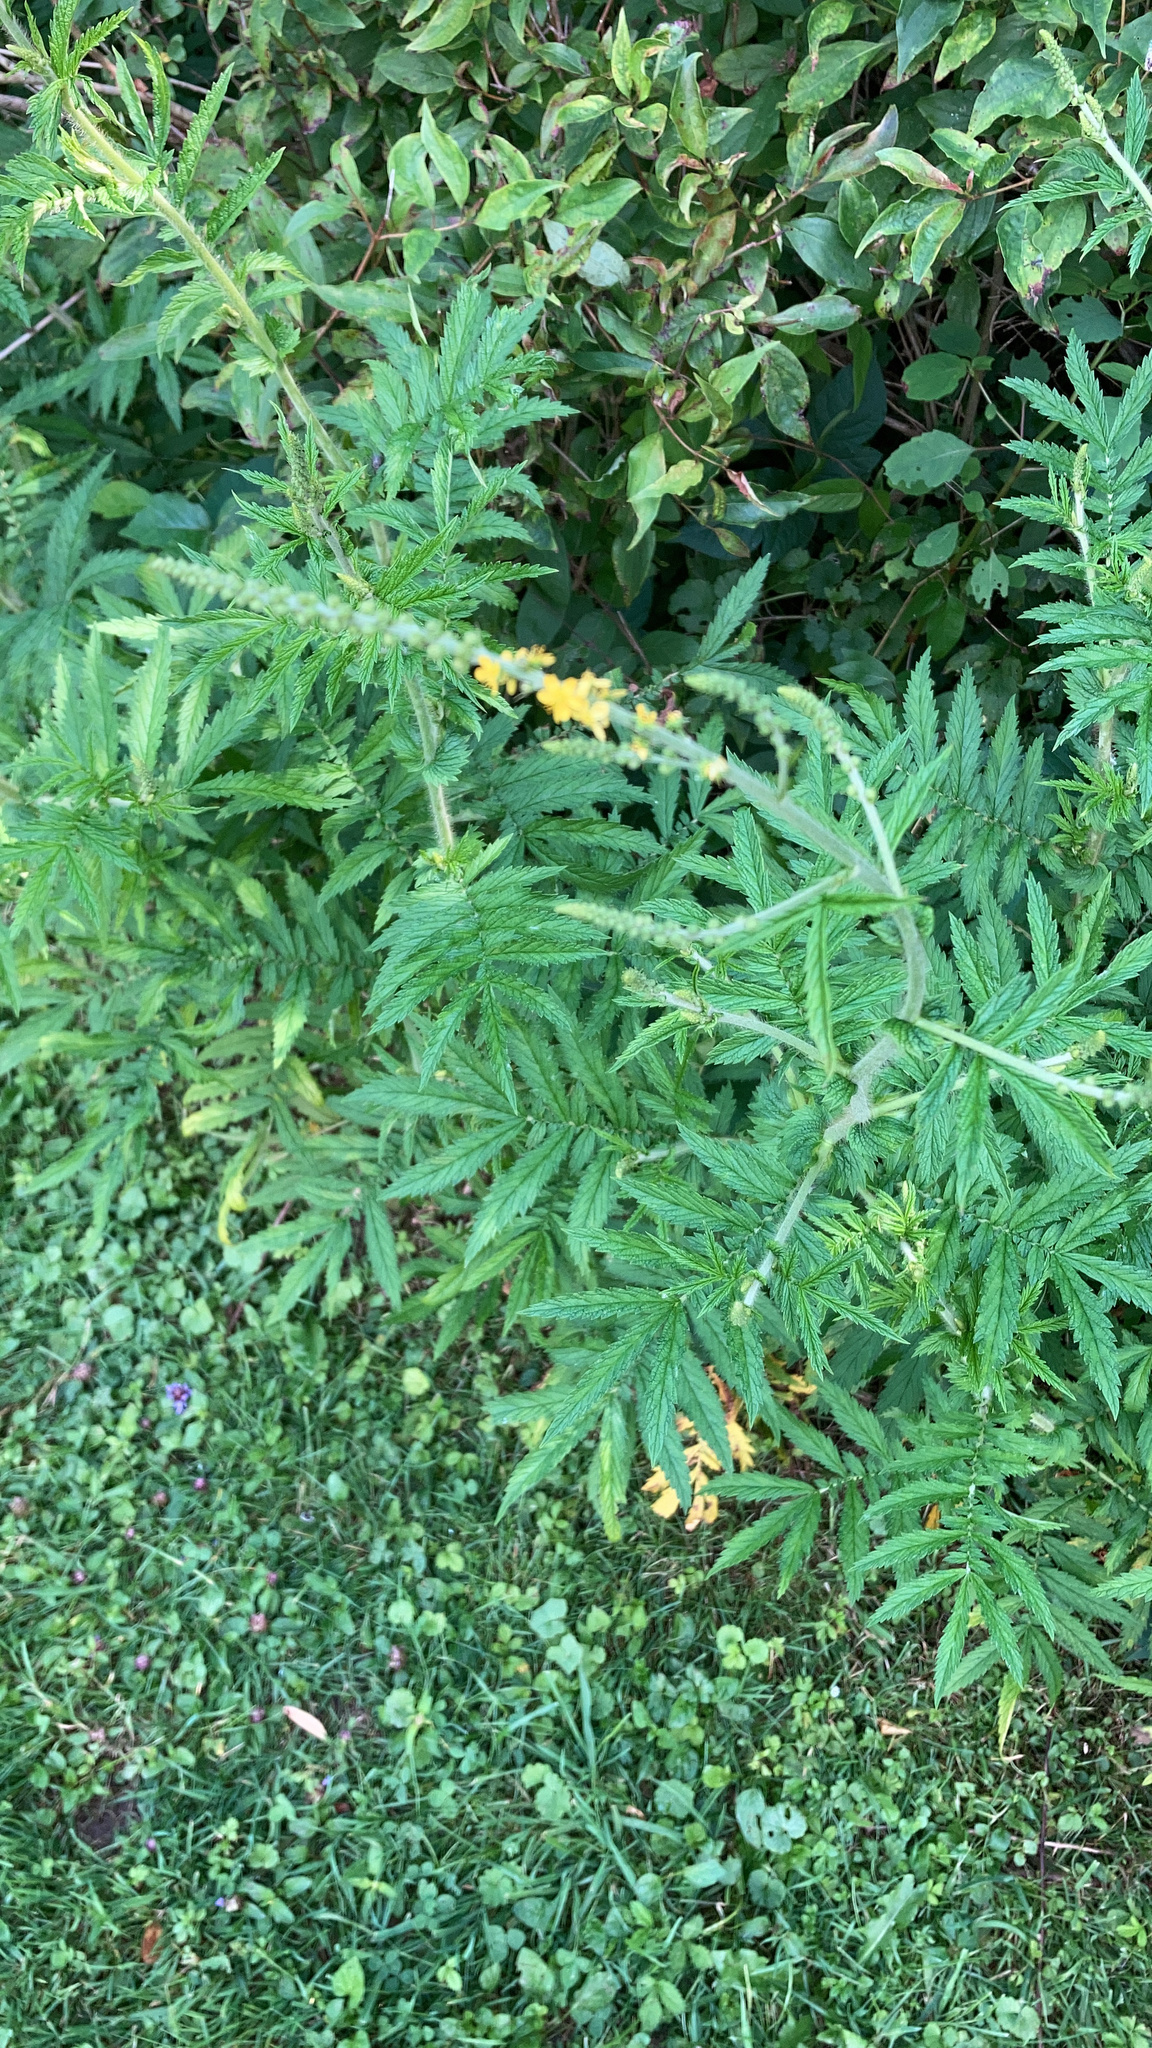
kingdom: Plantae
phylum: Tracheophyta
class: Magnoliopsida
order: Rosales
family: Rosaceae
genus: Agrimonia
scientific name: Agrimonia parviflora
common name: Harvest-lice
